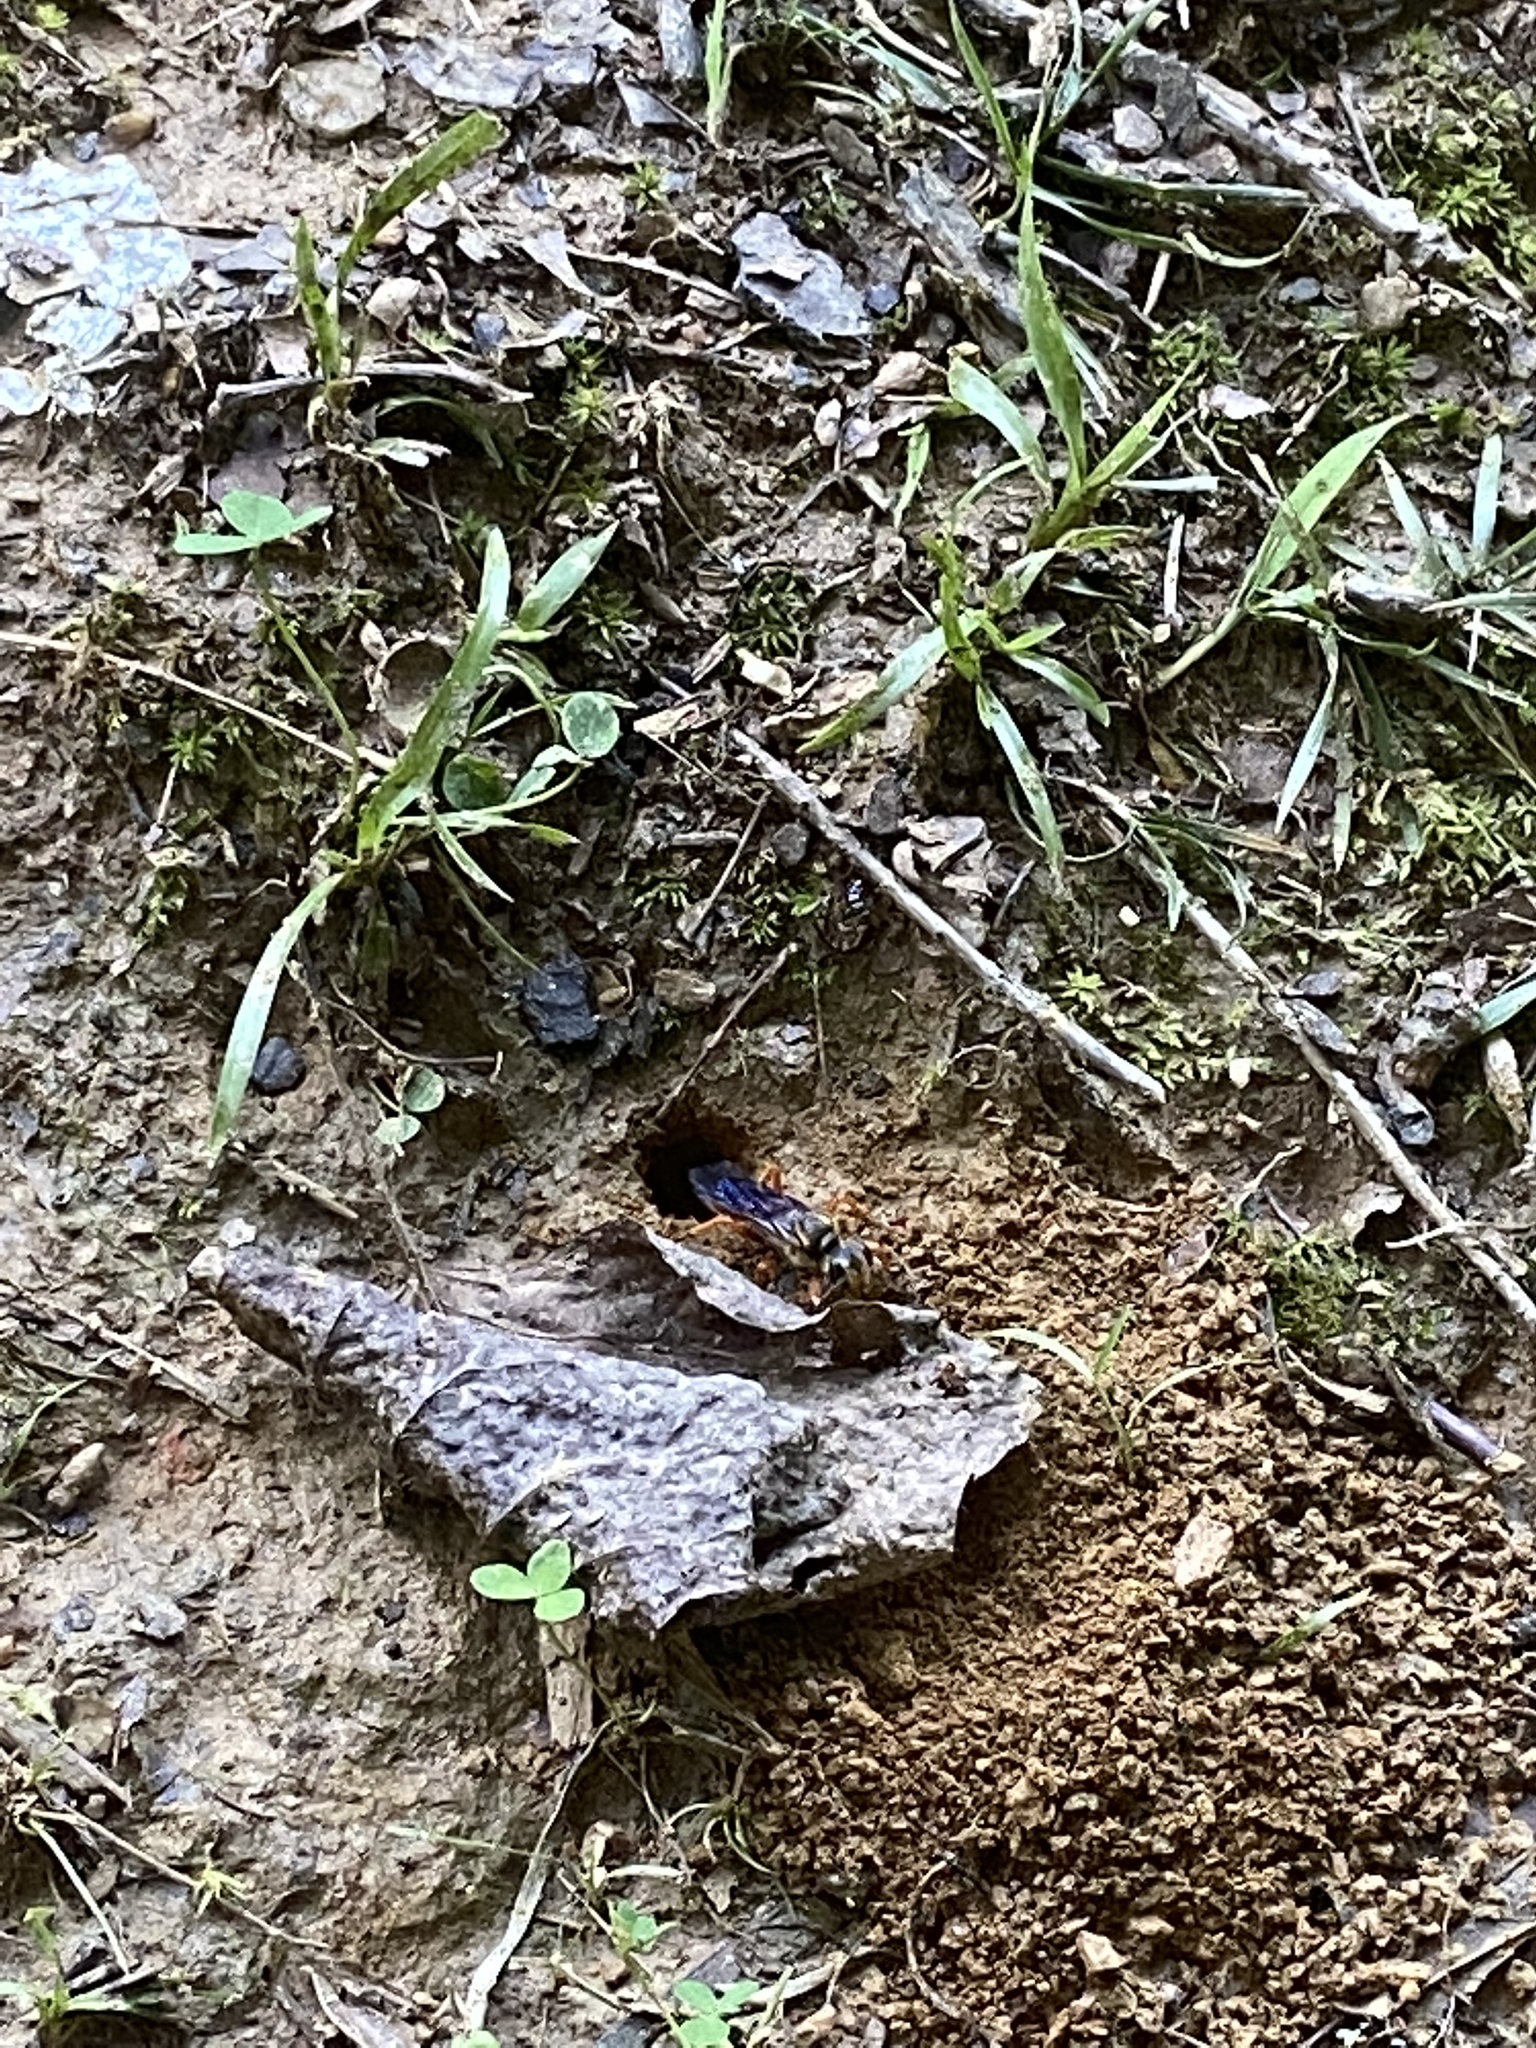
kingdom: Animalia
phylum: Arthropoda
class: Insecta
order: Hymenoptera
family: Sphecidae
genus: Sphex
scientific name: Sphex ichneumoneus
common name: Great golden digger wasp
